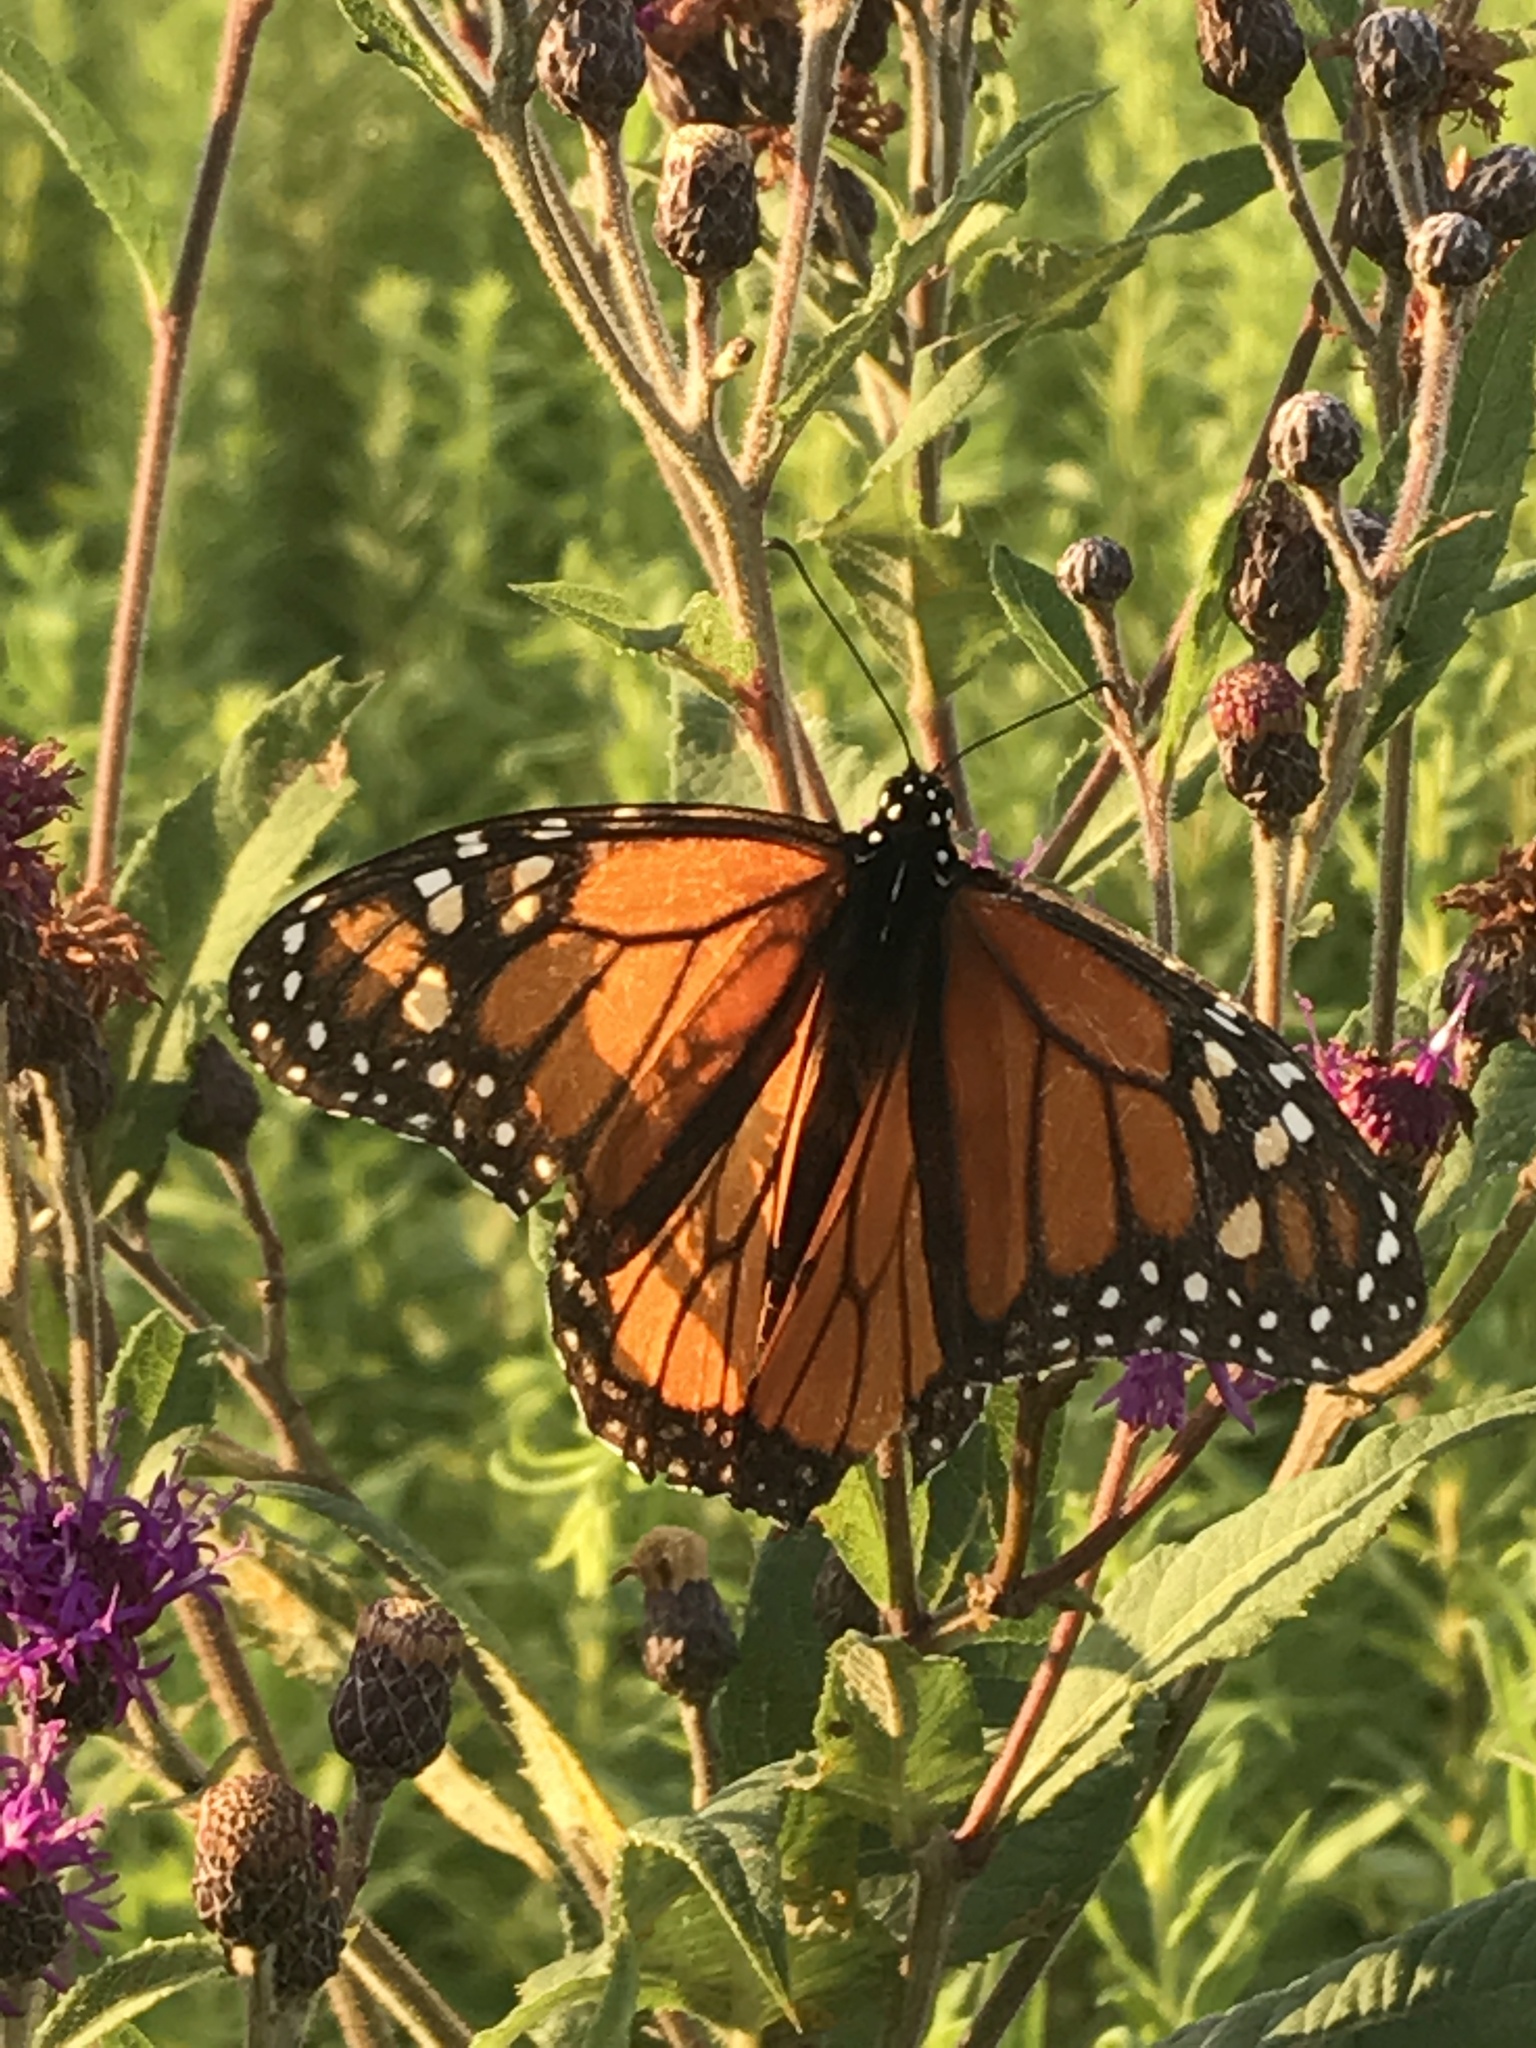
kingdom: Animalia
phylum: Arthropoda
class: Insecta
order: Lepidoptera
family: Nymphalidae
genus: Danaus
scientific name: Danaus plexippus
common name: Monarch
